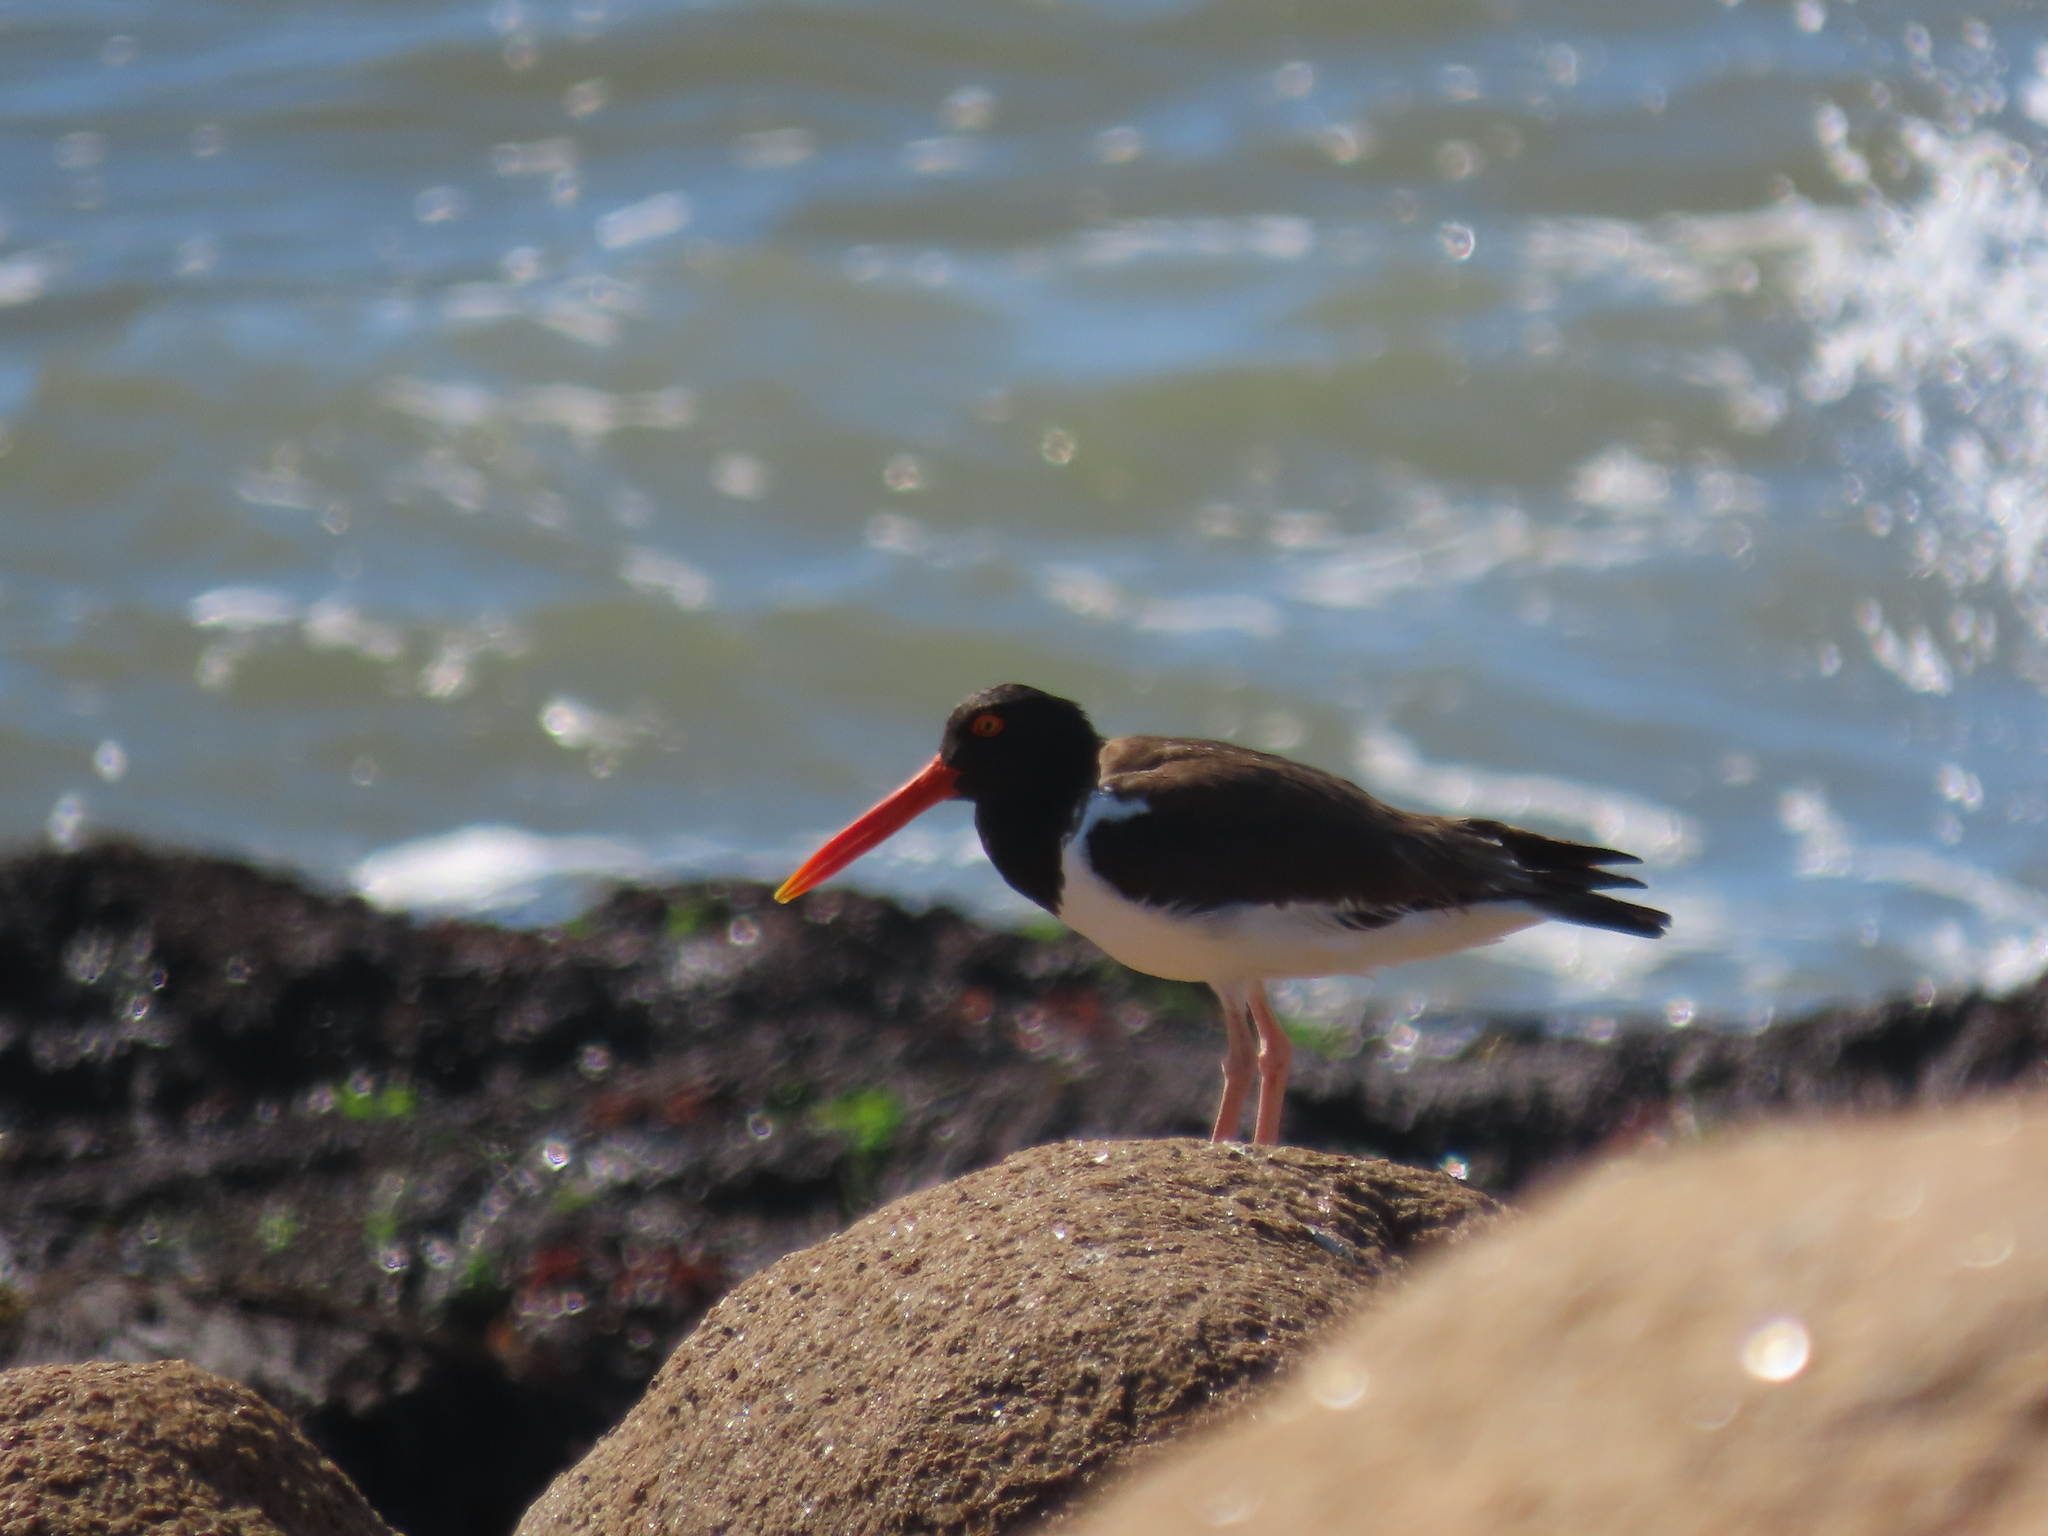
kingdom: Animalia
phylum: Chordata
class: Aves
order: Charadriiformes
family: Haematopodidae
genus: Haematopus
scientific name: Haematopus palliatus
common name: American oystercatcher
